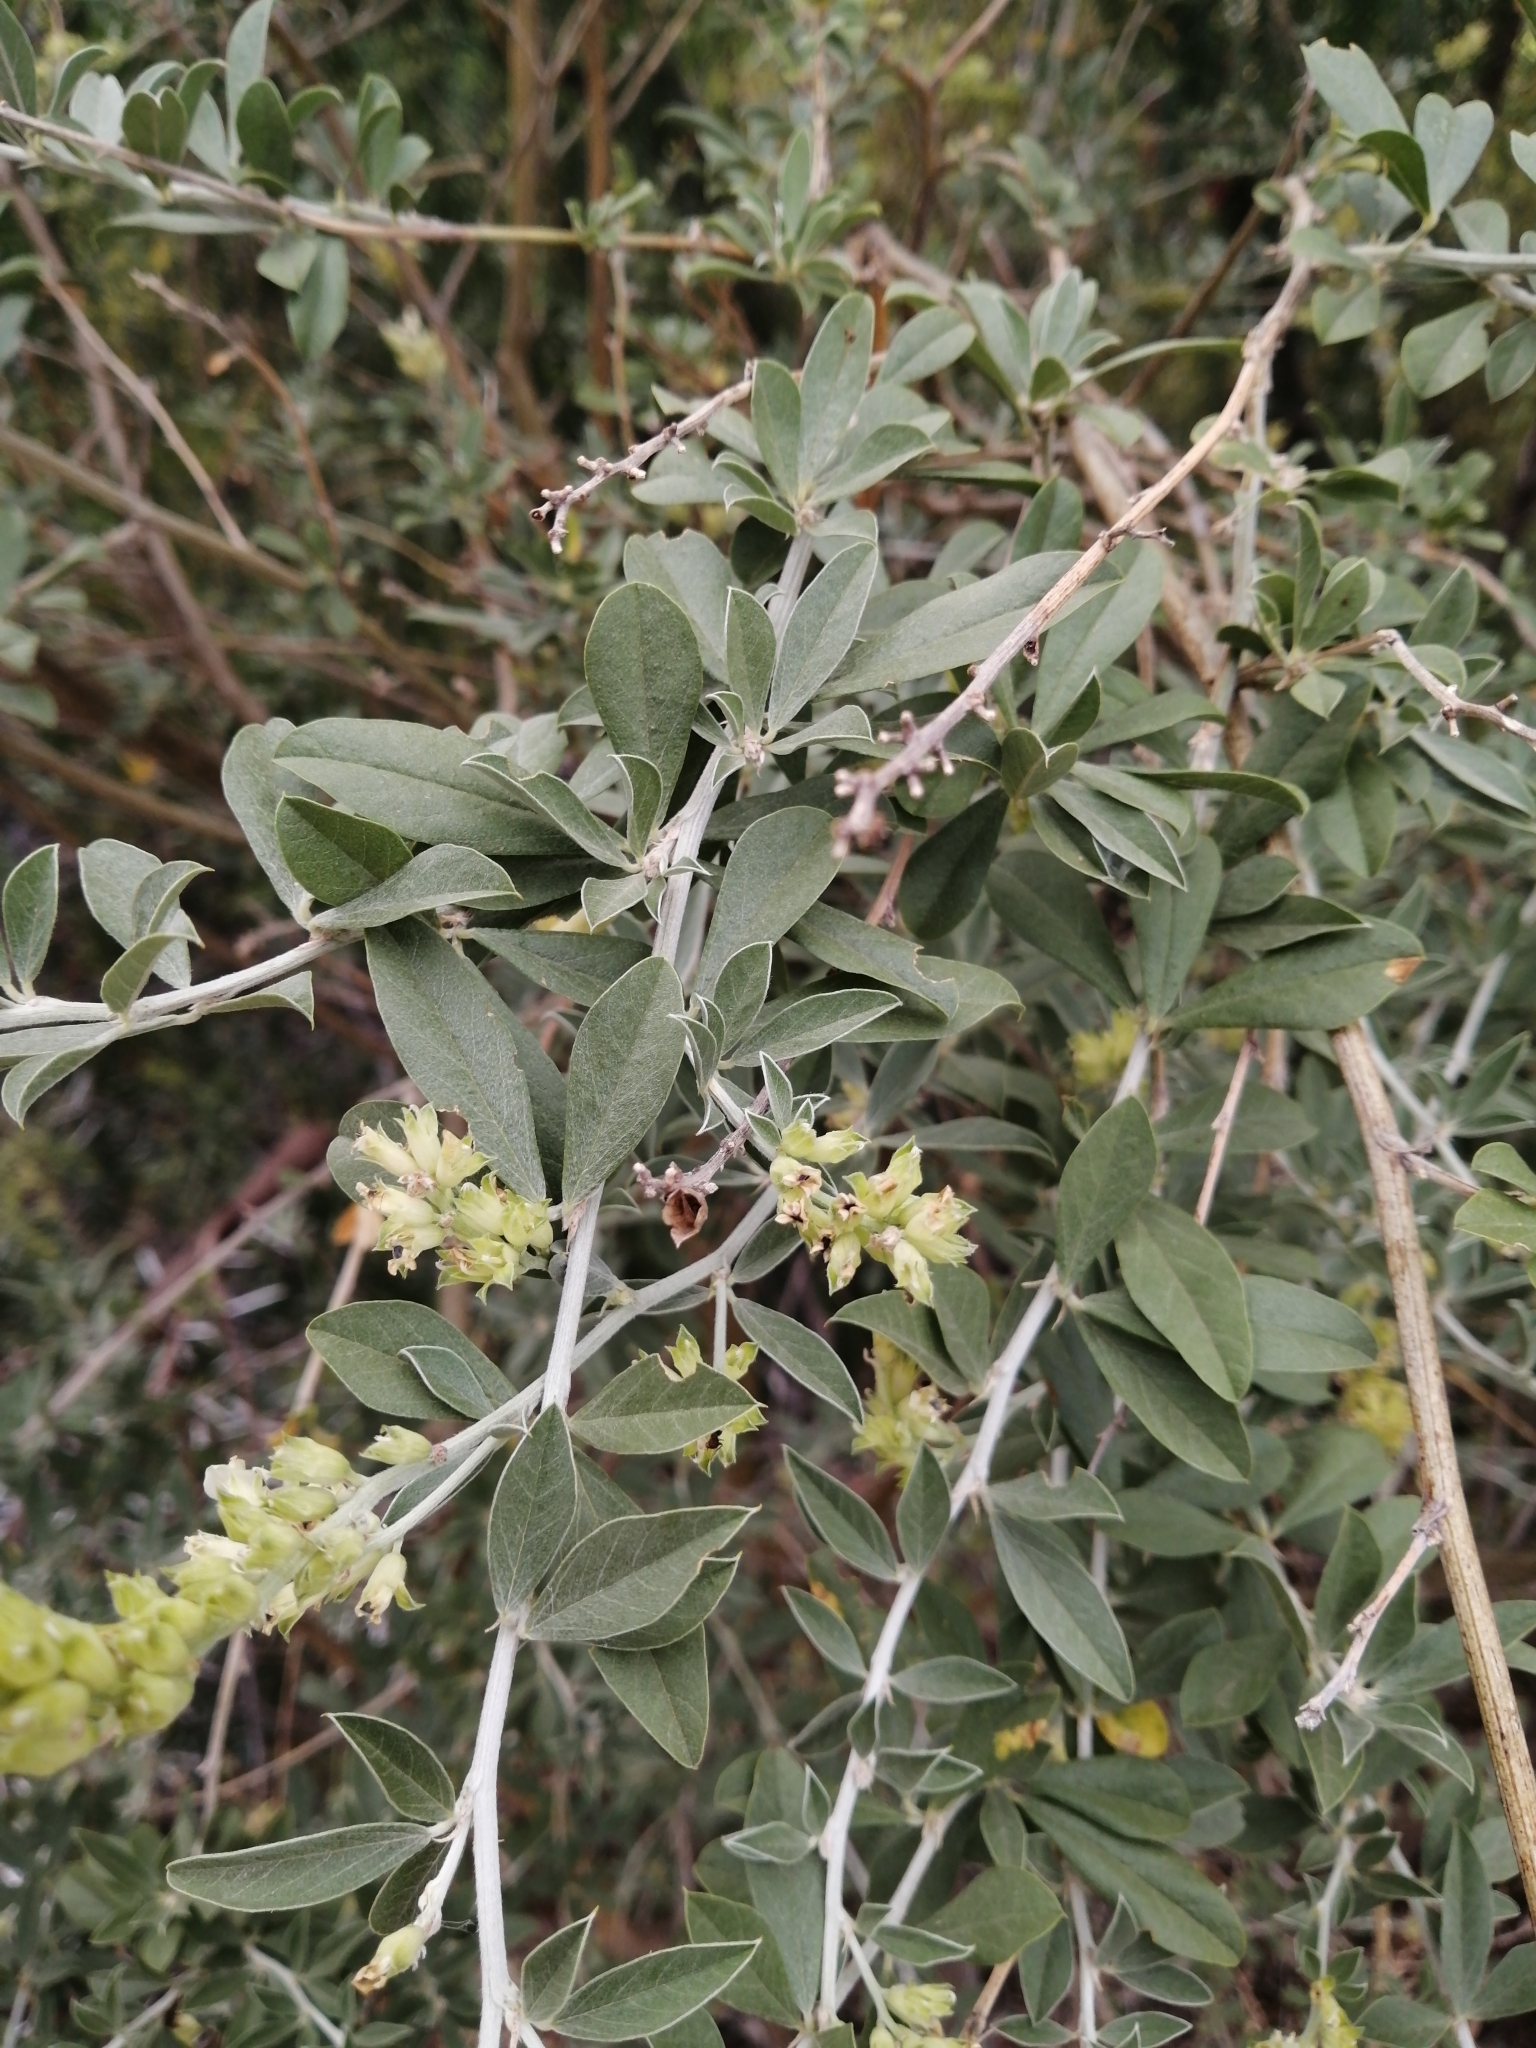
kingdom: Plantae
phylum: Tracheophyta
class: Magnoliopsida
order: Fabales
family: Fabaceae
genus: Psoralea
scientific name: Psoralea striata
